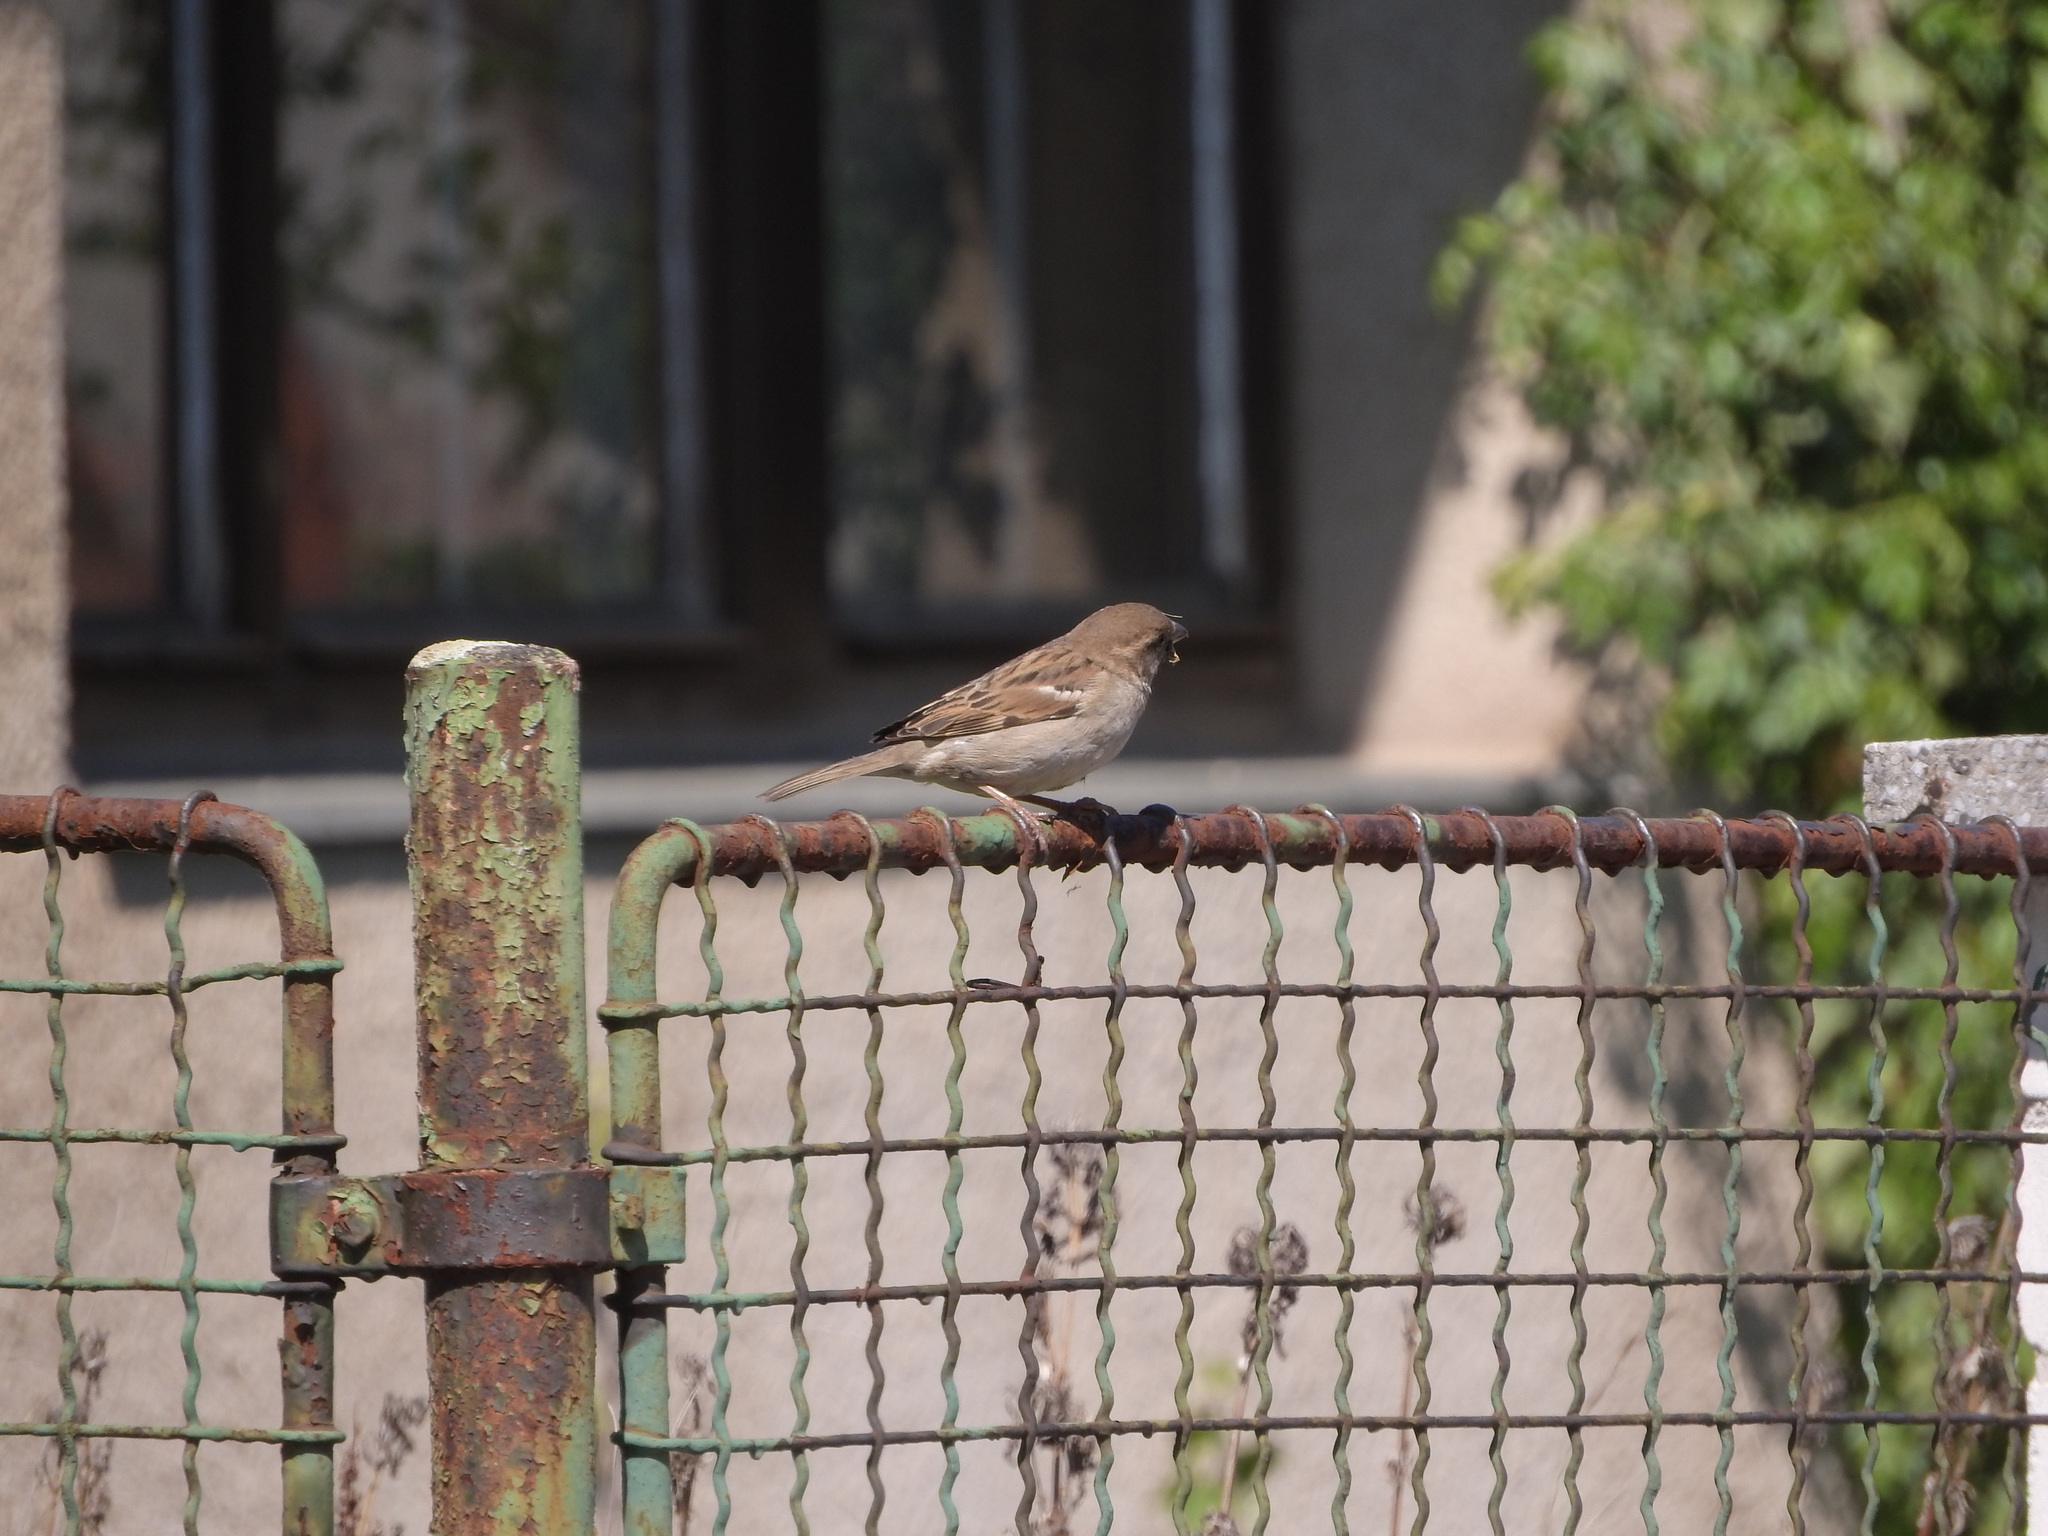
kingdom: Animalia
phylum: Chordata
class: Aves
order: Passeriformes
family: Passeridae
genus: Passer
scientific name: Passer domesticus
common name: House sparrow
